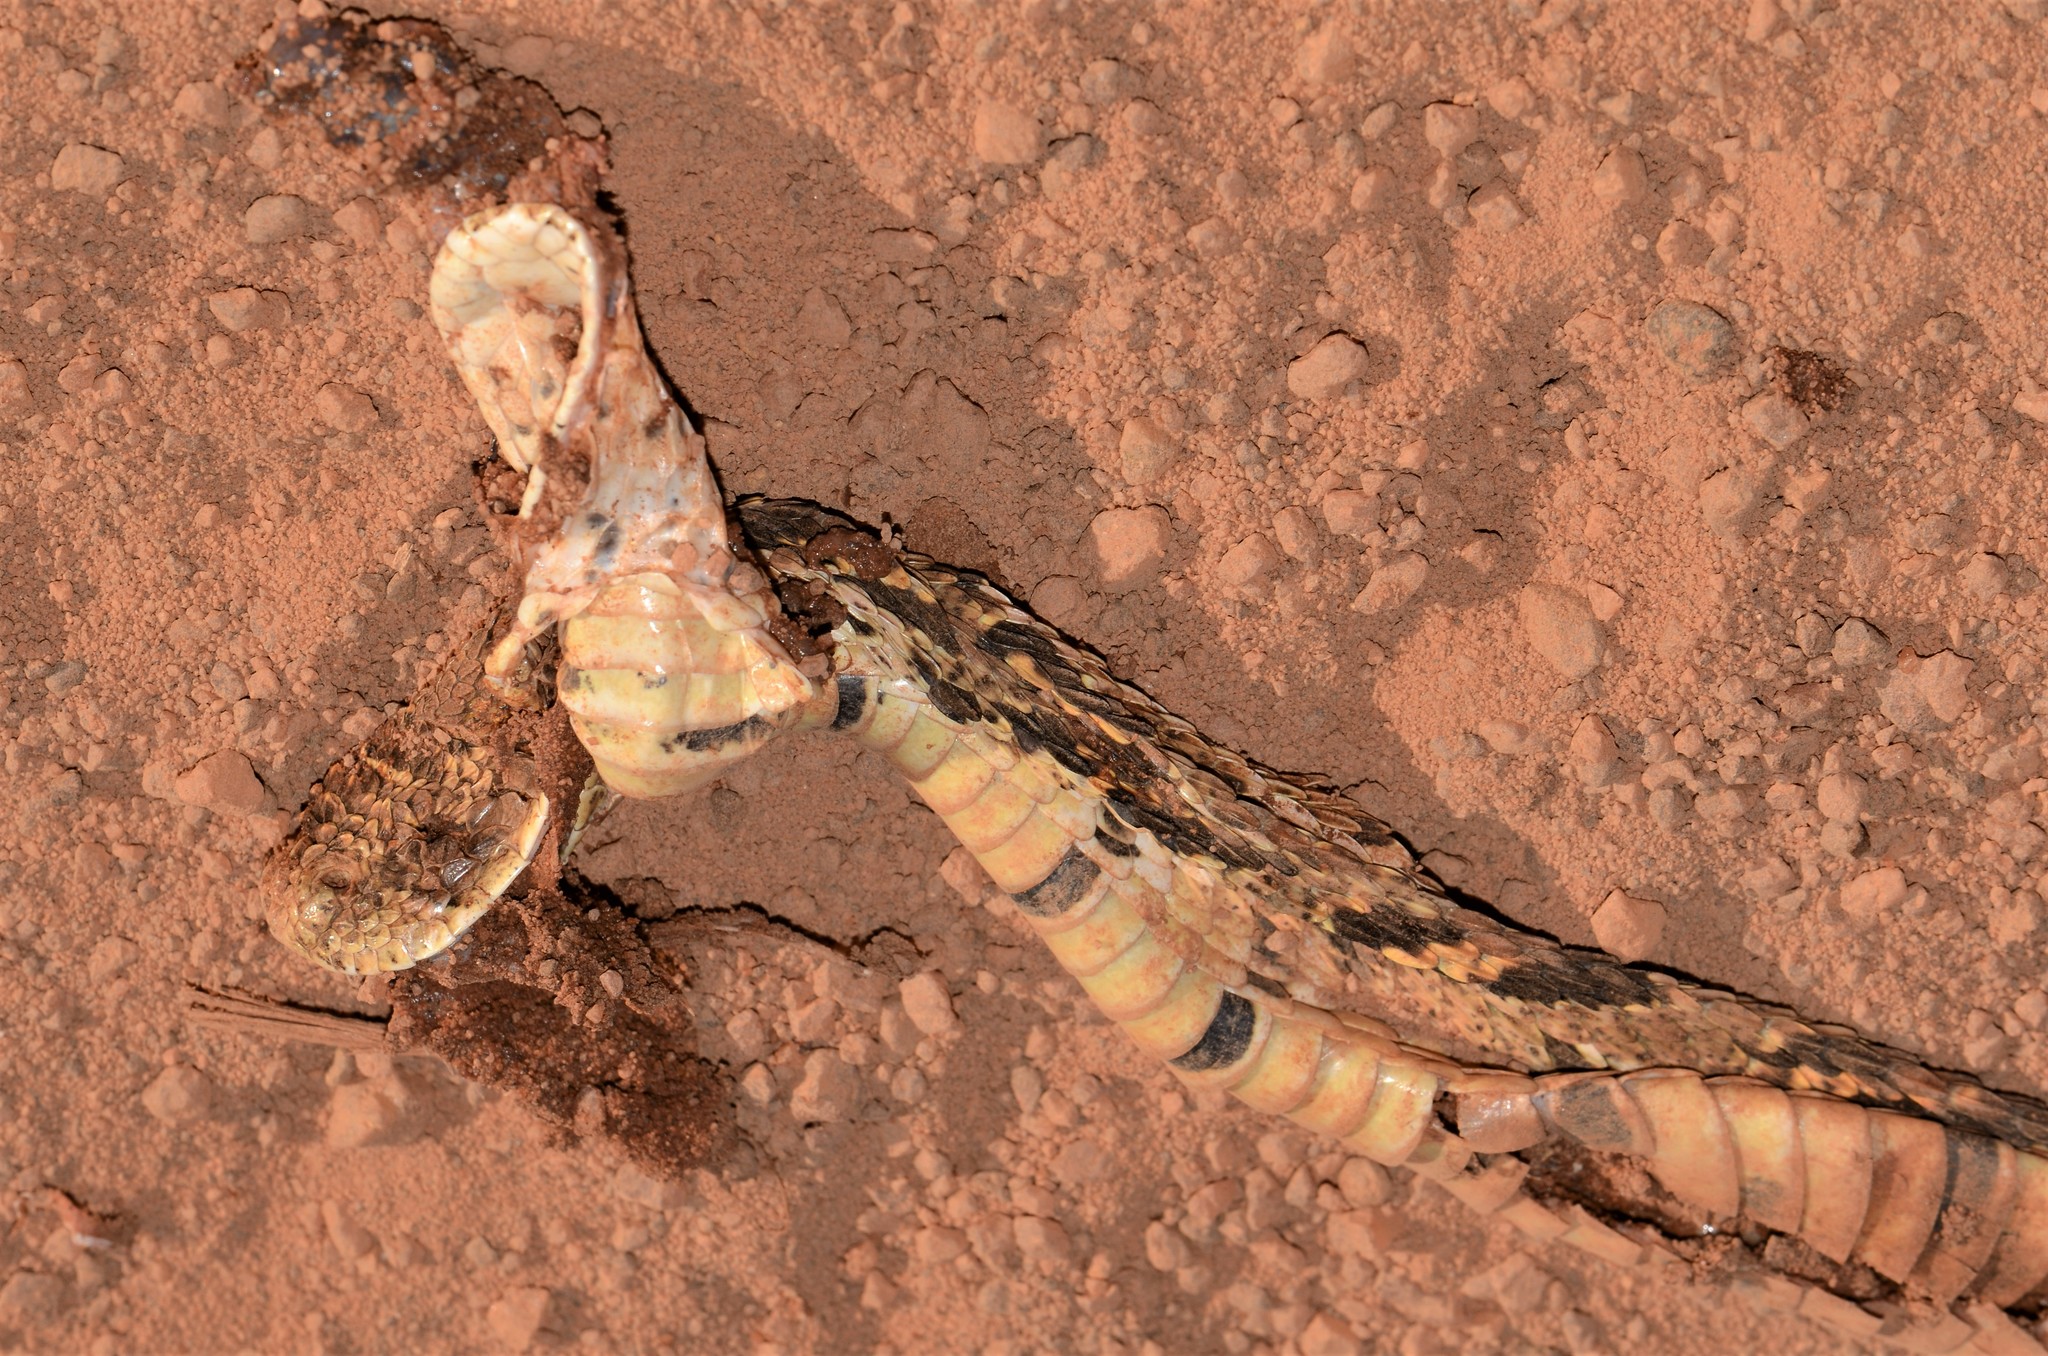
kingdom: Animalia
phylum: Chordata
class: Squamata
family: Viperidae
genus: Bitis
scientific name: Bitis arietans
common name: Puff adder
